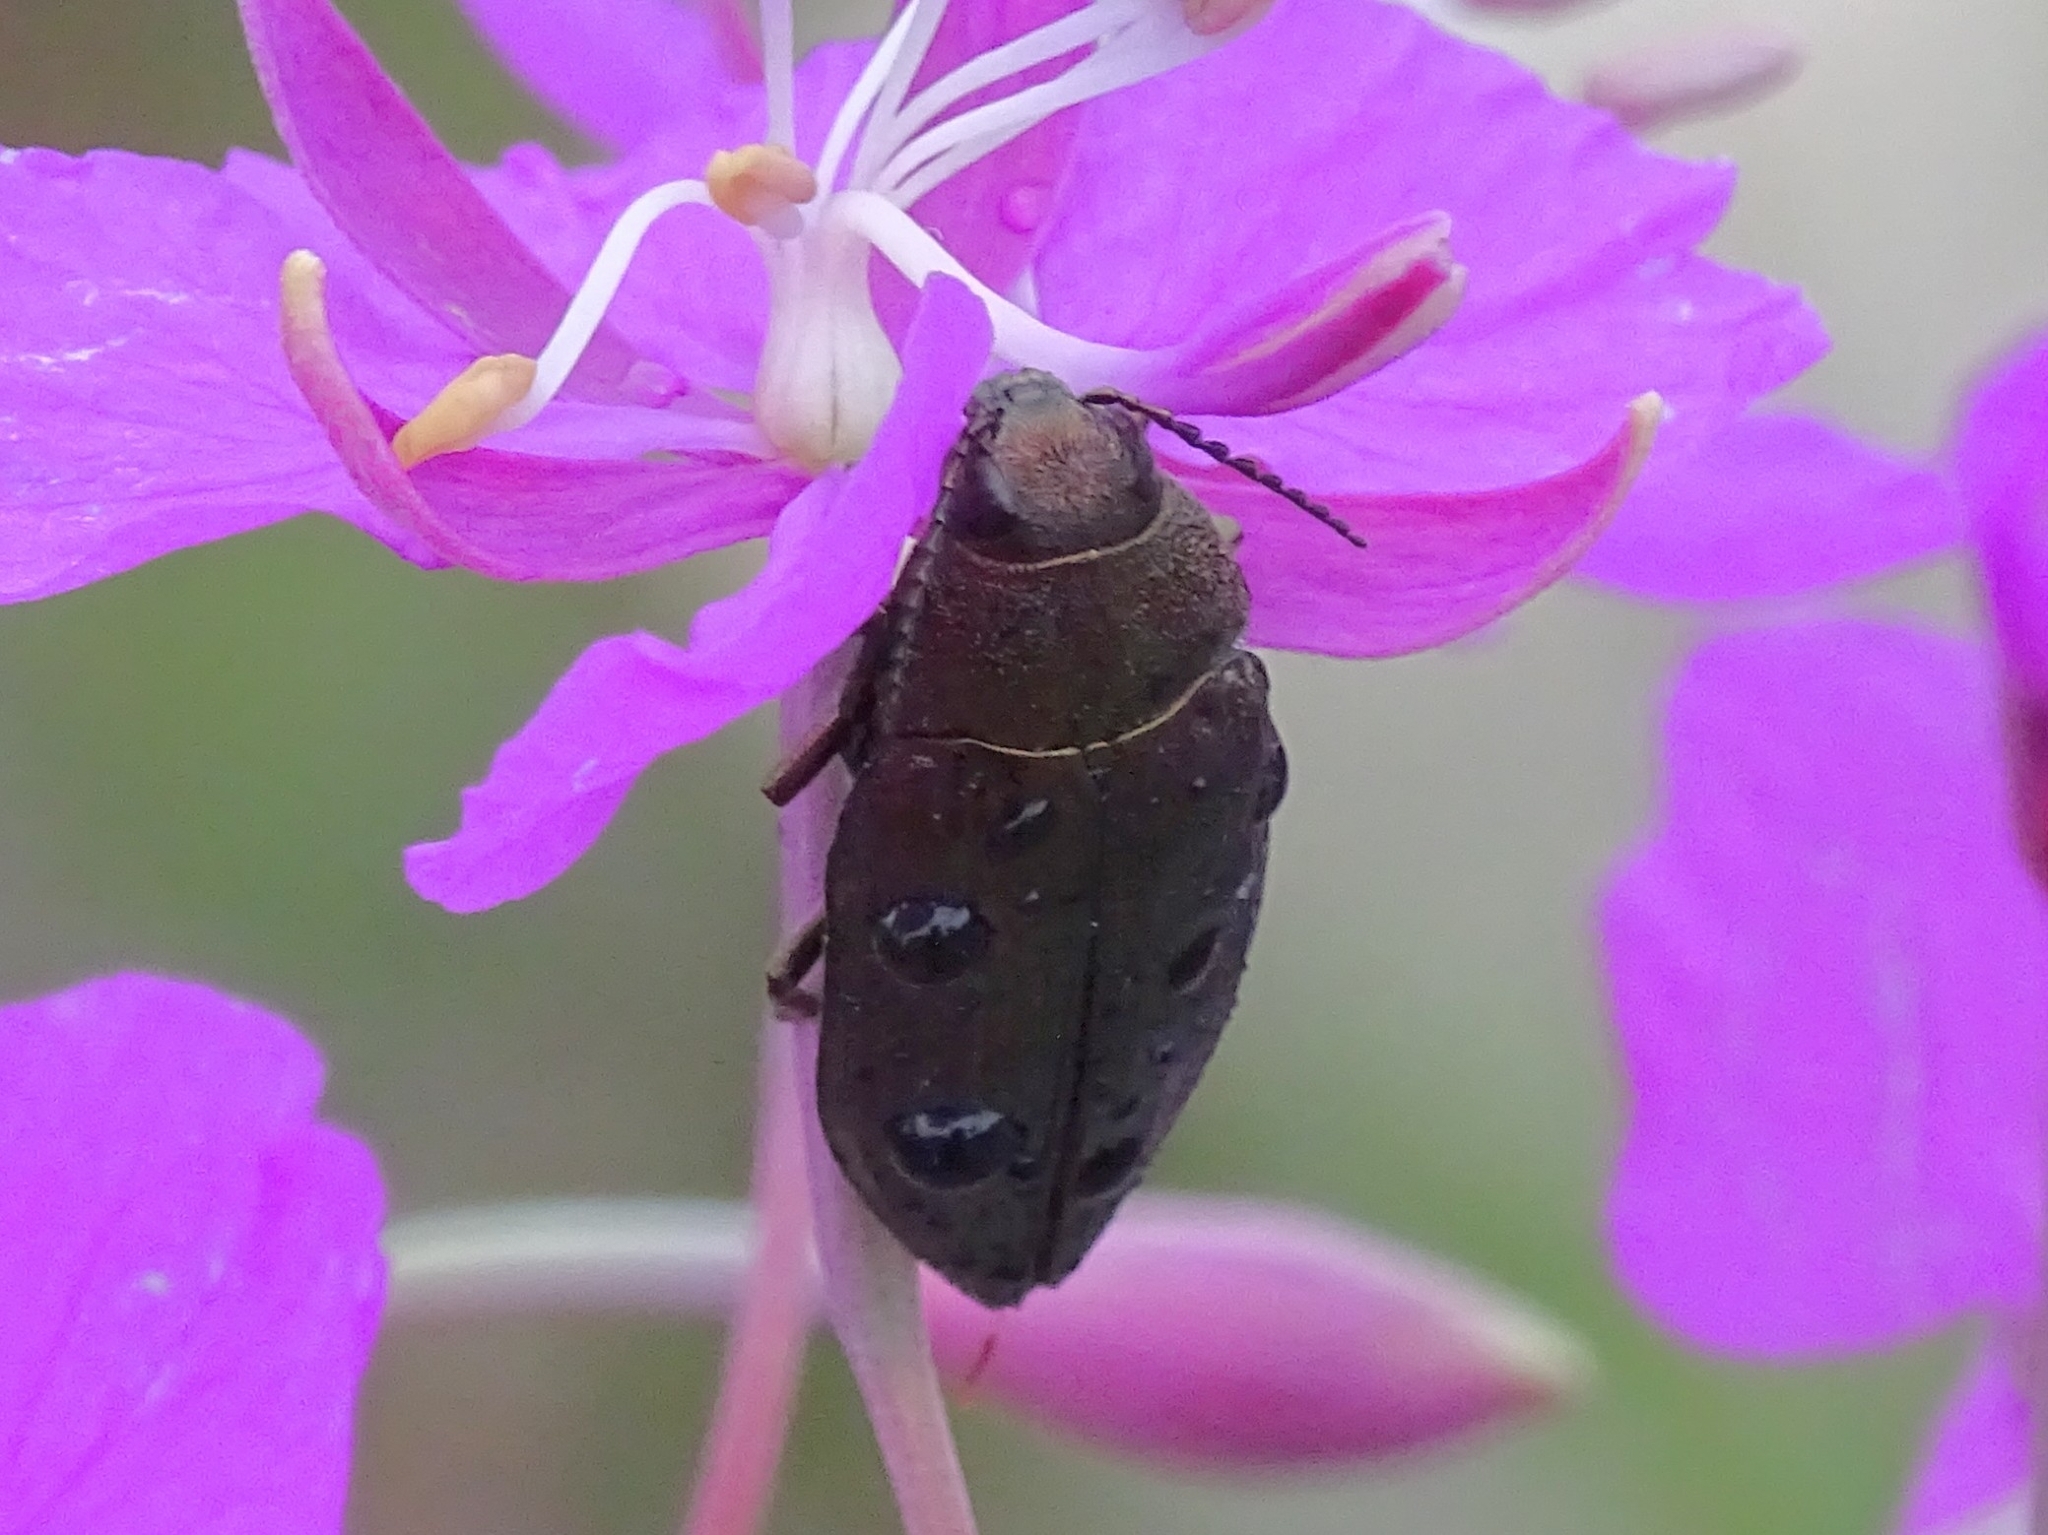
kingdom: Animalia
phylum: Arthropoda
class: Insecta
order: Coleoptera
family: Buprestidae
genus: Buprestis
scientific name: Buprestis rustica
